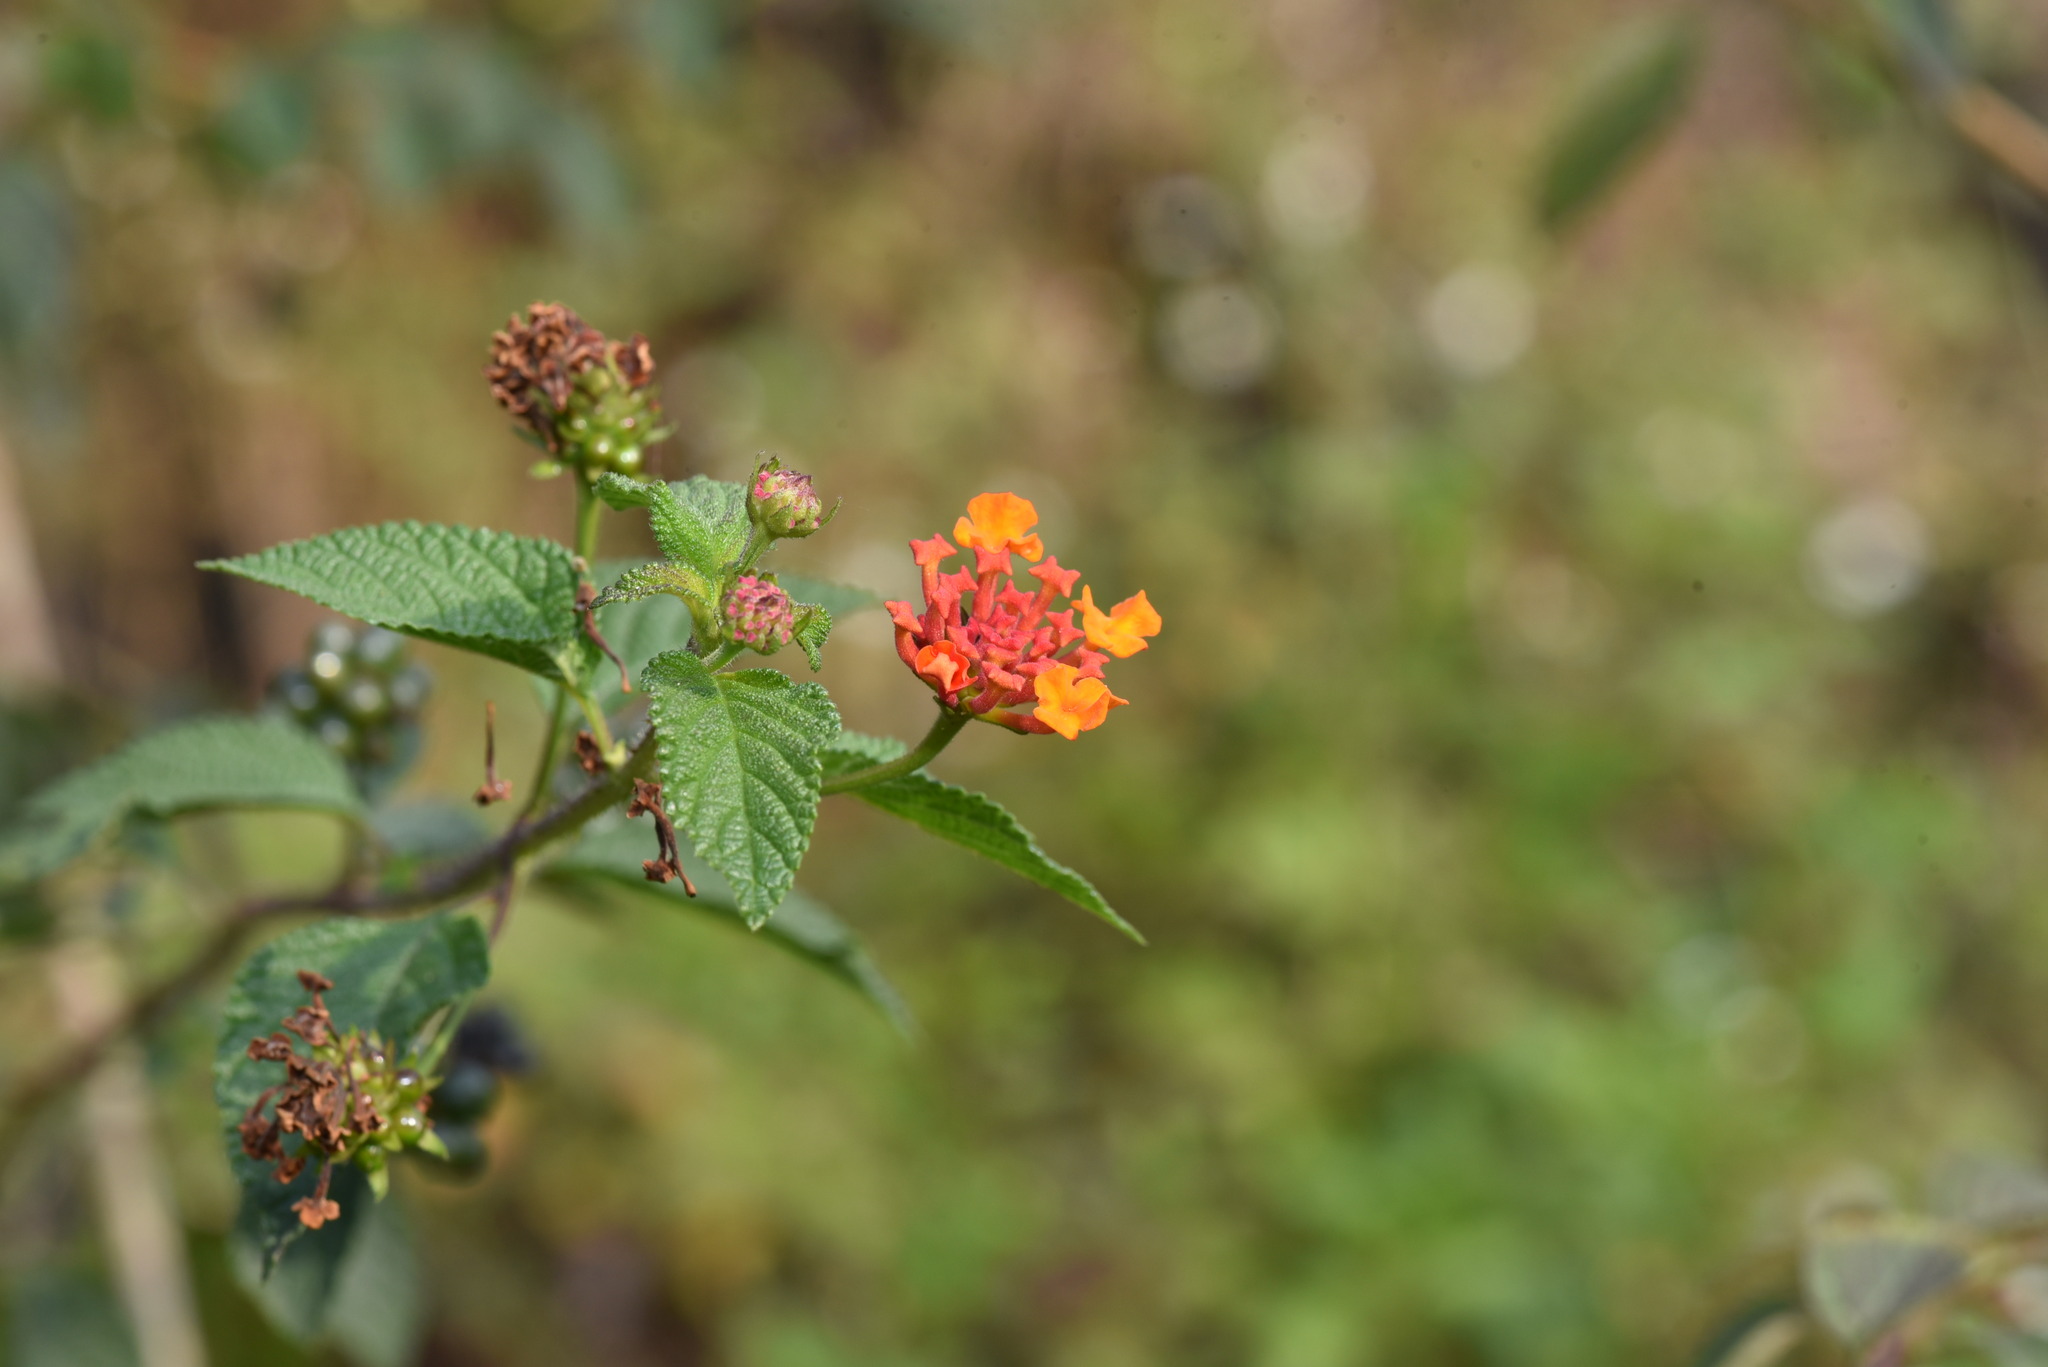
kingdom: Plantae
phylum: Tracheophyta
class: Magnoliopsida
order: Lamiales
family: Verbenaceae
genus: Lantana
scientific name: Lantana camara
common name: Lantana
